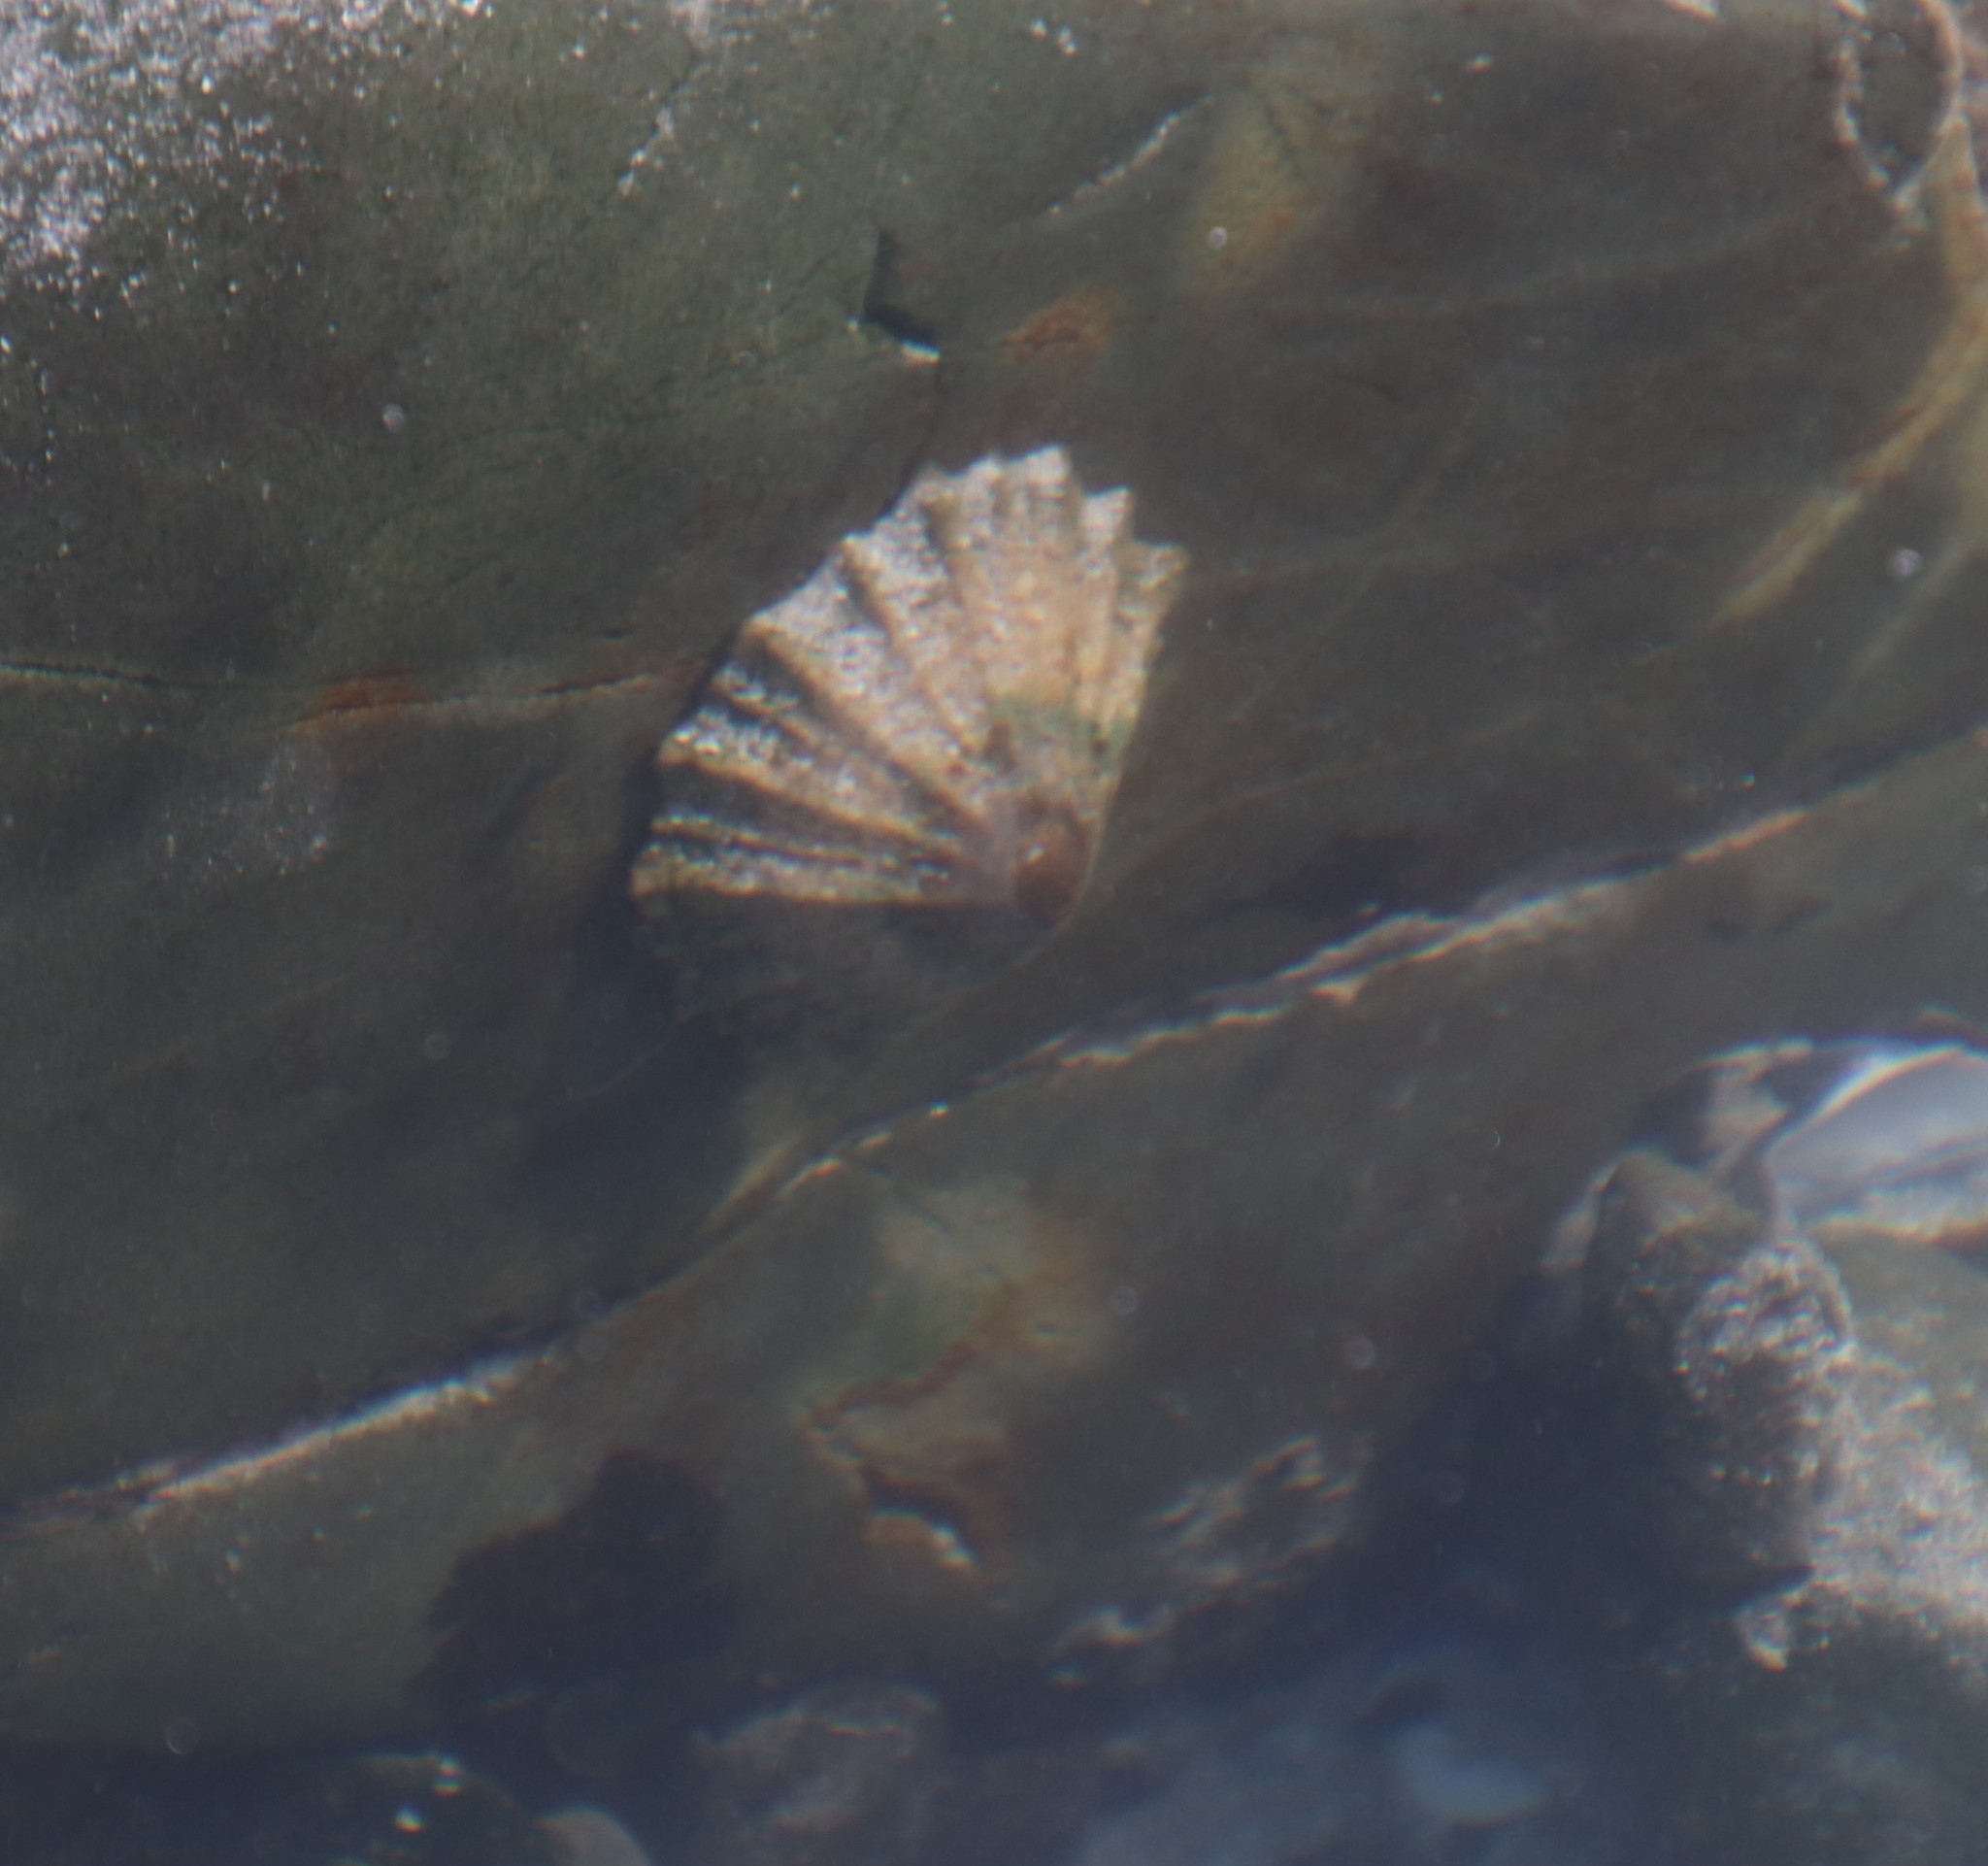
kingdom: Animalia
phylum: Mollusca
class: Gastropoda
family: Patellidae
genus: Cymbula
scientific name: Cymbula granatina
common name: Granite limpet
